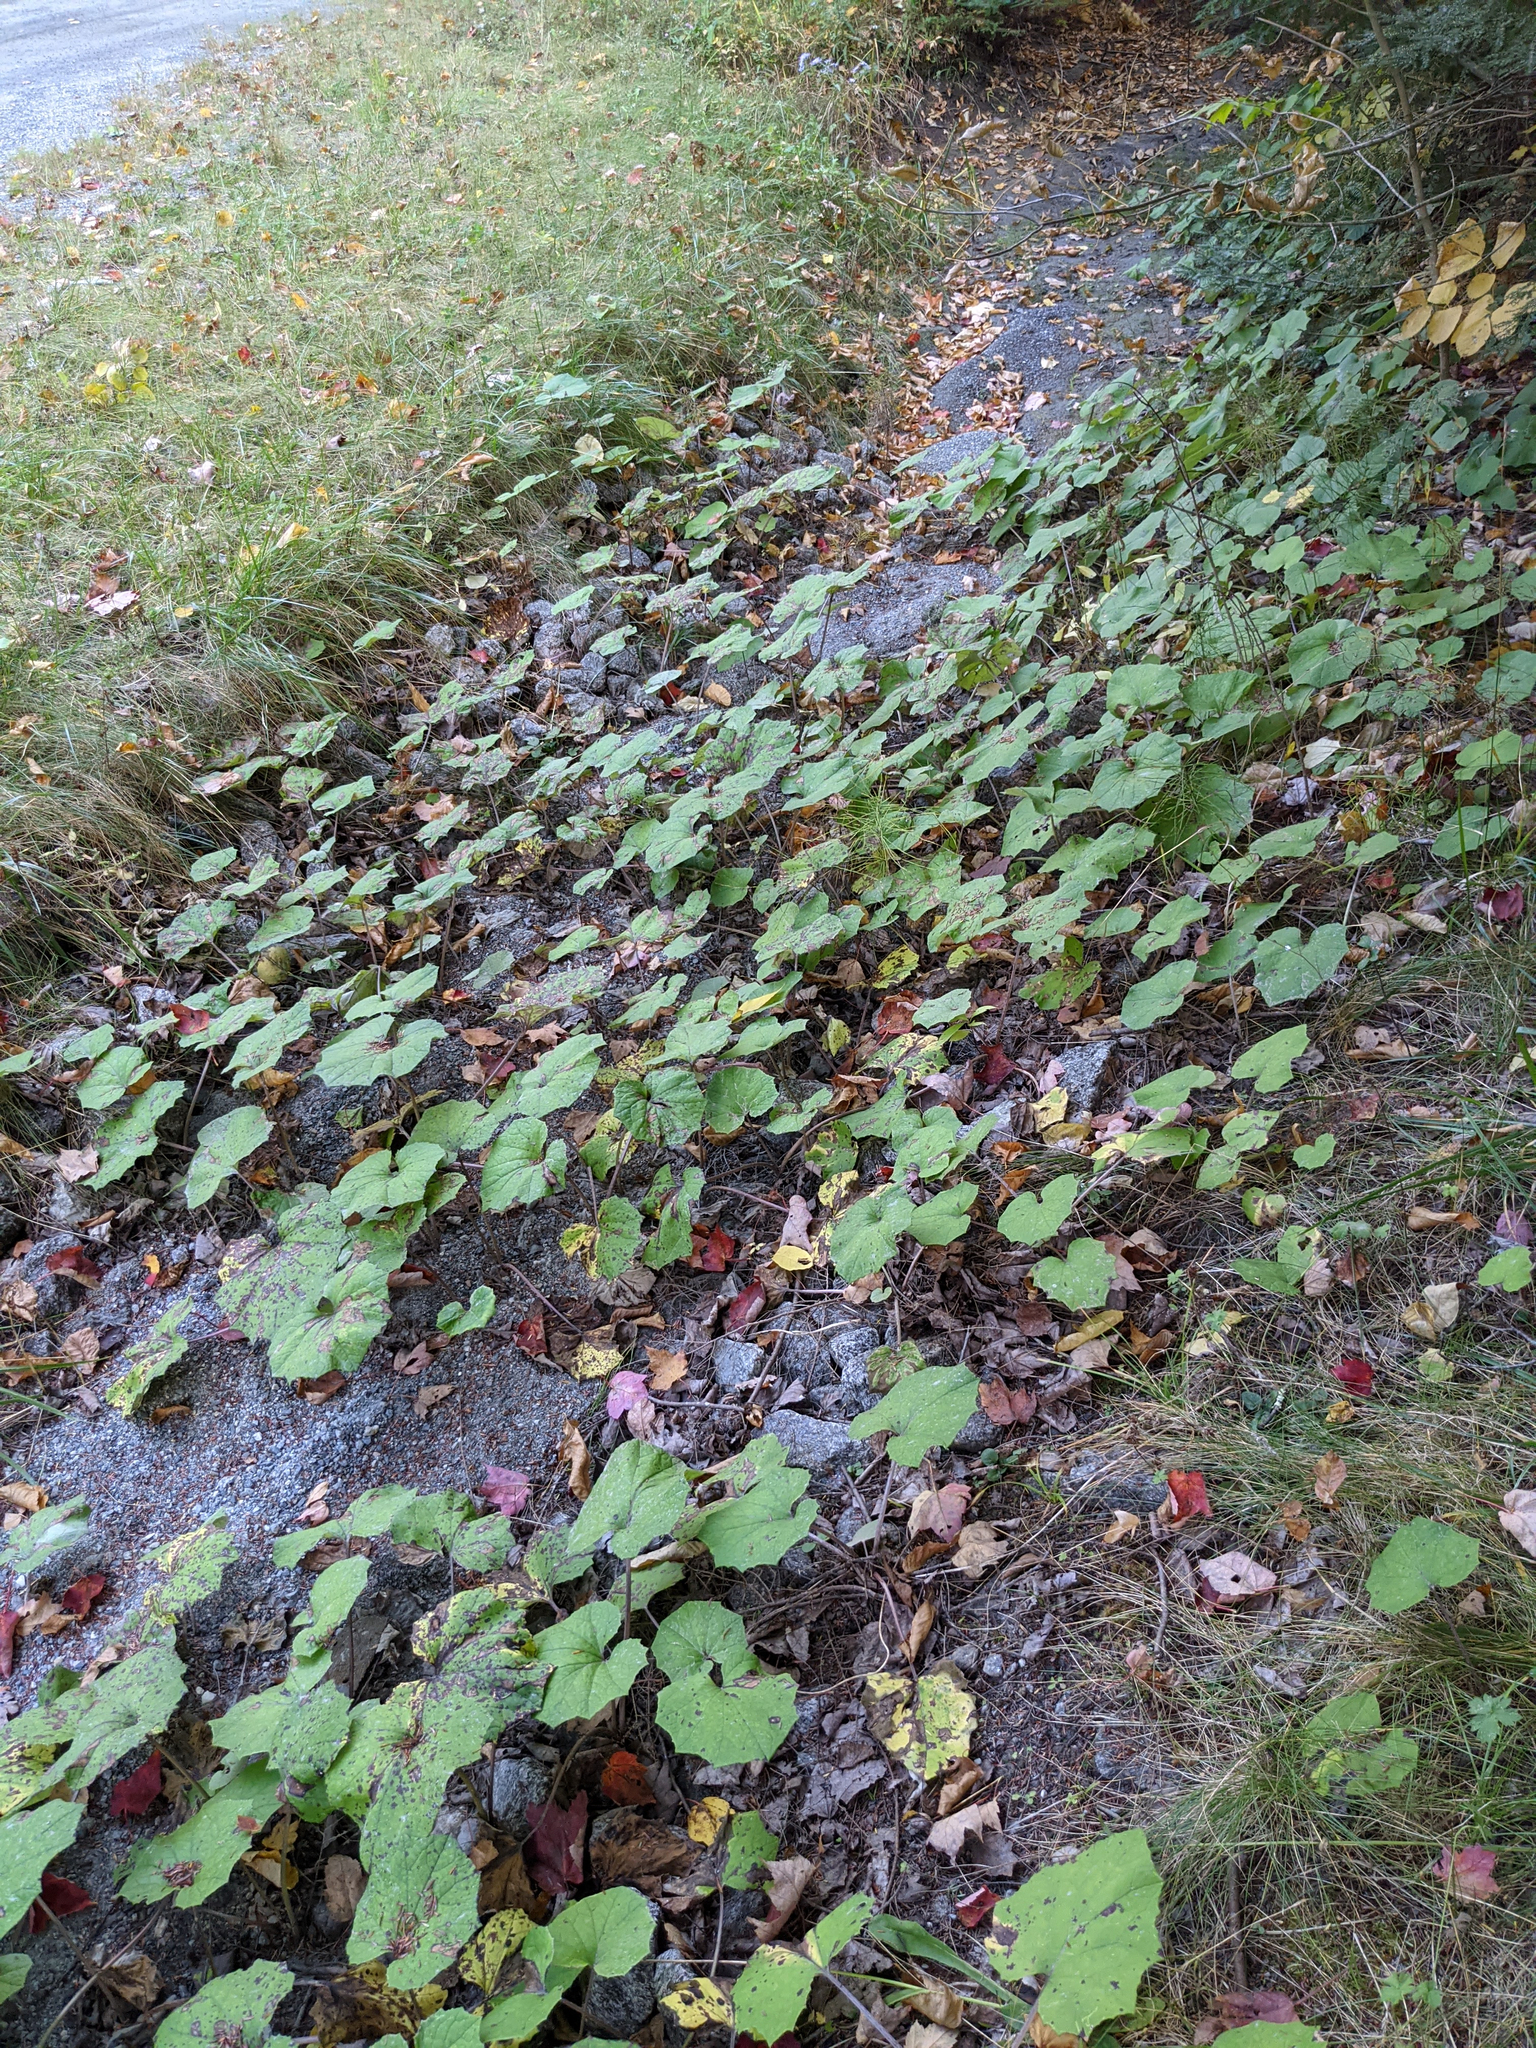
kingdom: Plantae
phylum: Tracheophyta
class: Magnoliopsida
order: Asterales
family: Asteraceae
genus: Tussilago
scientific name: Tussilago farfara
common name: Coltsfoot
